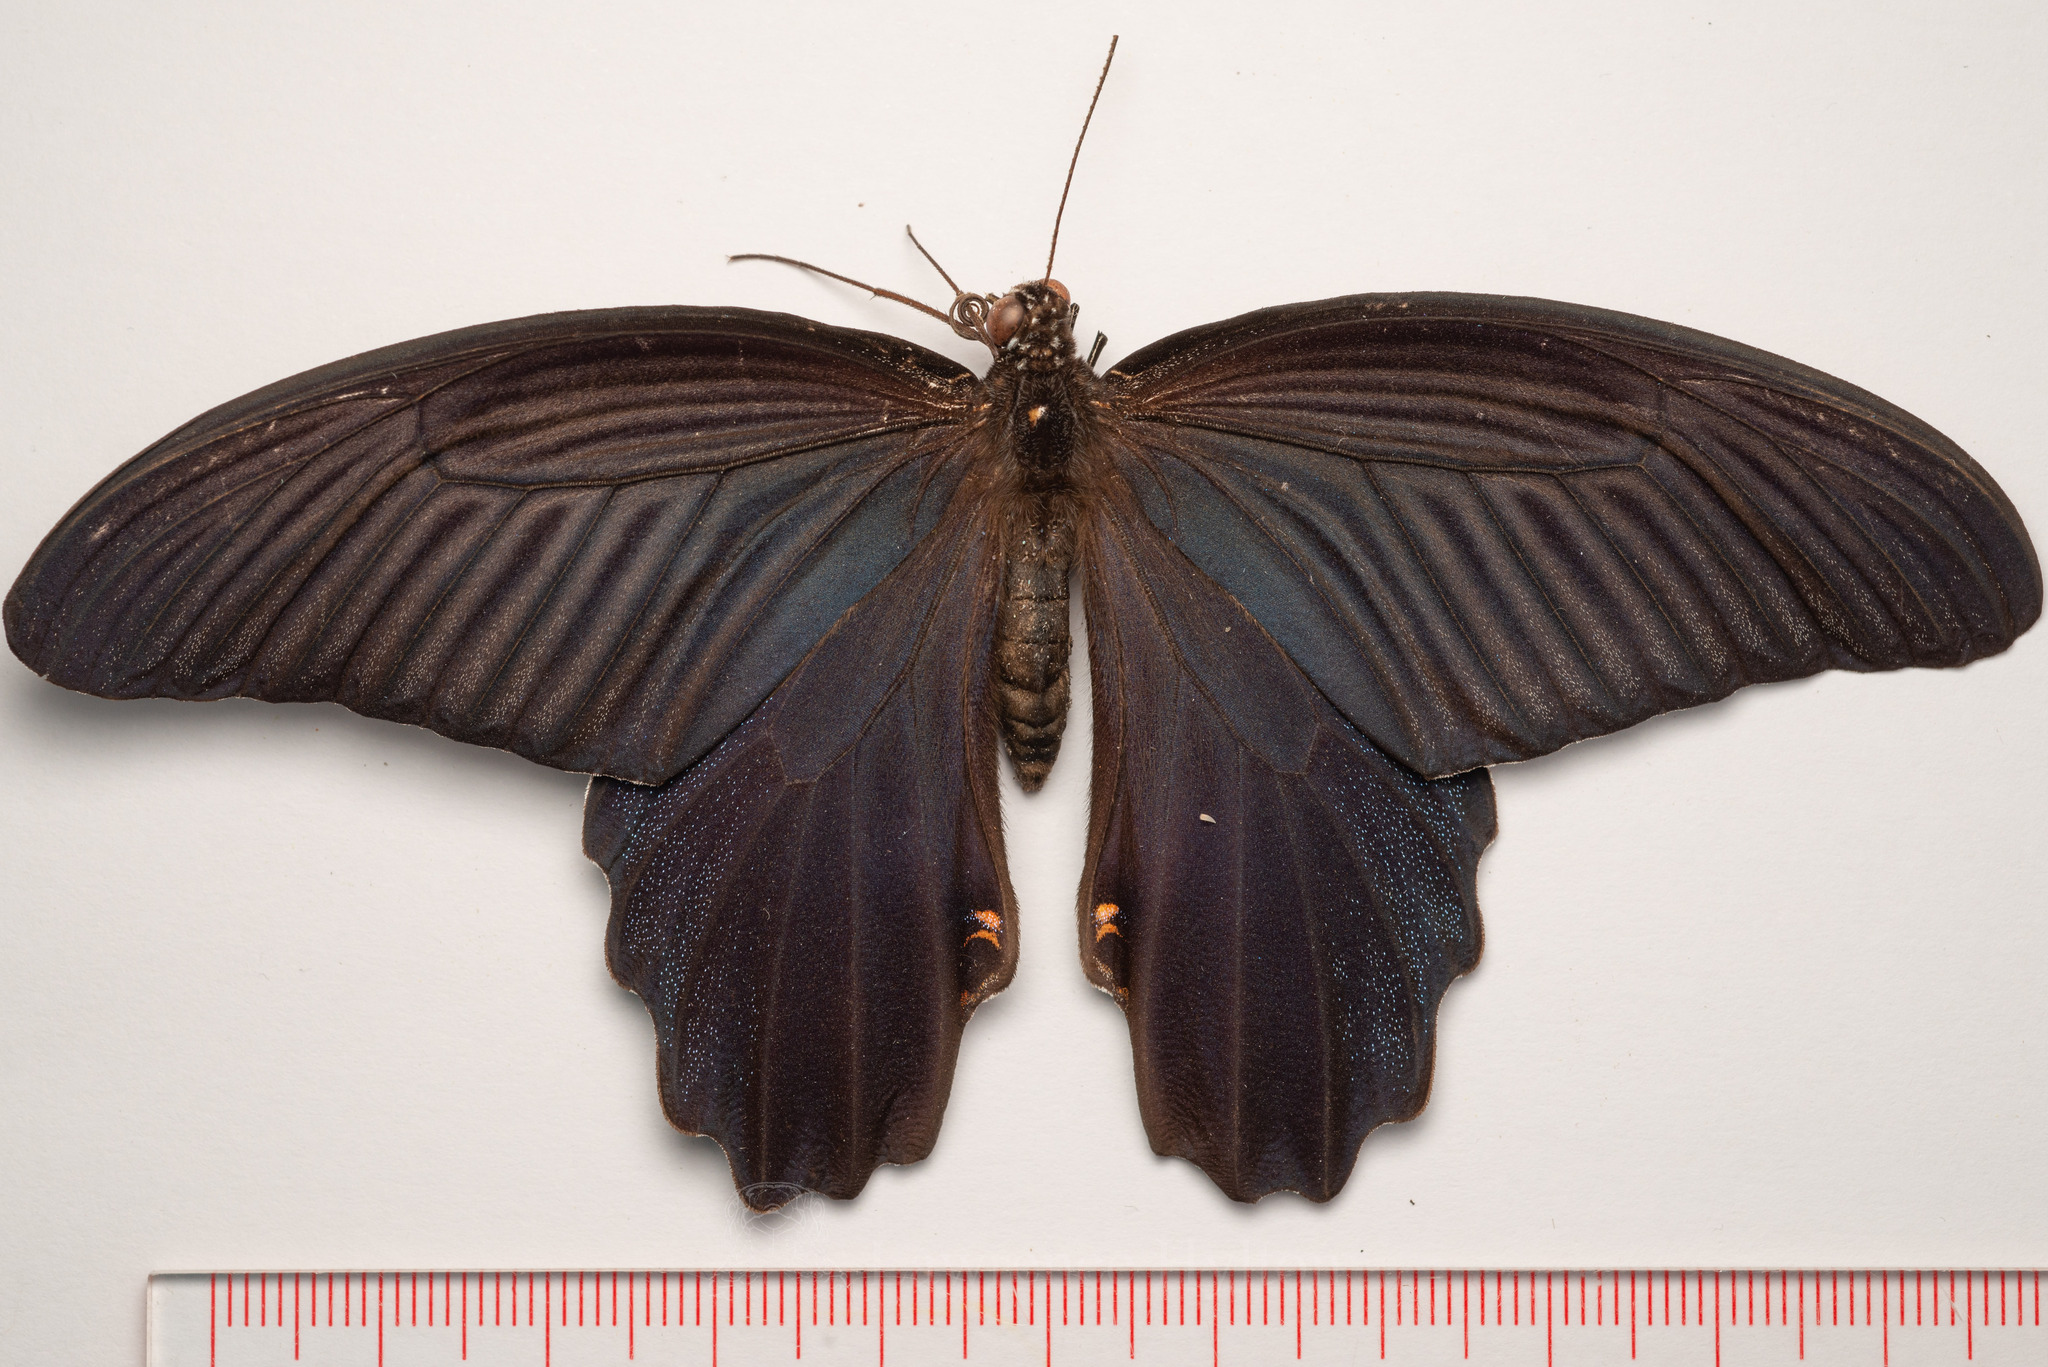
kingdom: Animalia
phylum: Arthropoda
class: Insecta
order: Lepidoptera
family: Papilionidae
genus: Papilio
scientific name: Papilio protenor
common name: Spangle
